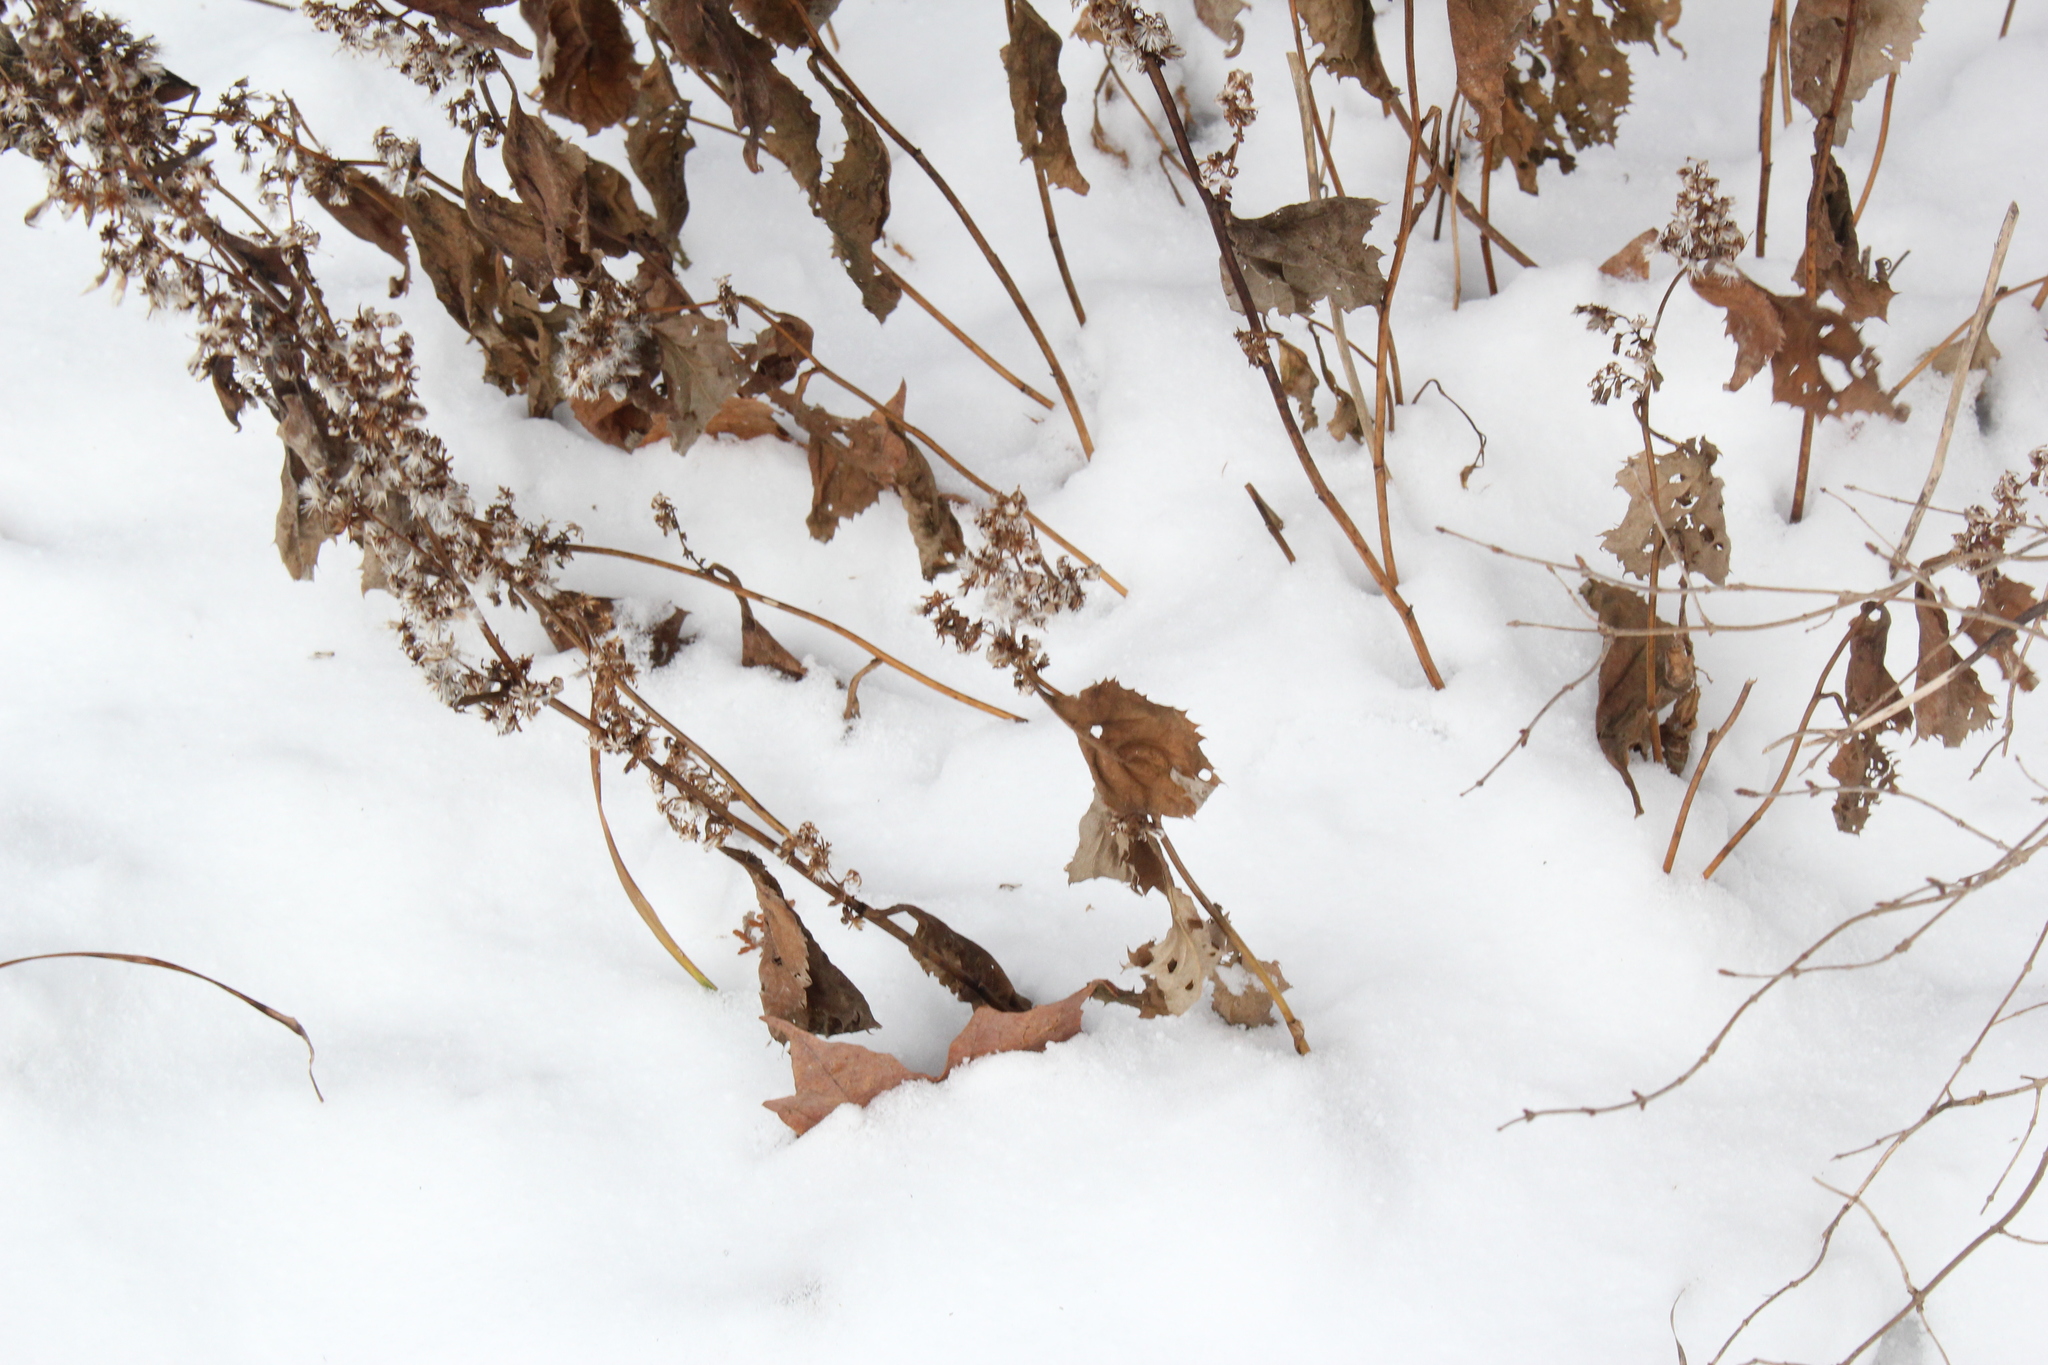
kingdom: Plantae
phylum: Tracheophyta
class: Magnoliopsida
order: Asterales
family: Asteraceae
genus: Solidago
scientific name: Solidago flexicaulis
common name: Zig-zag goldenrod
